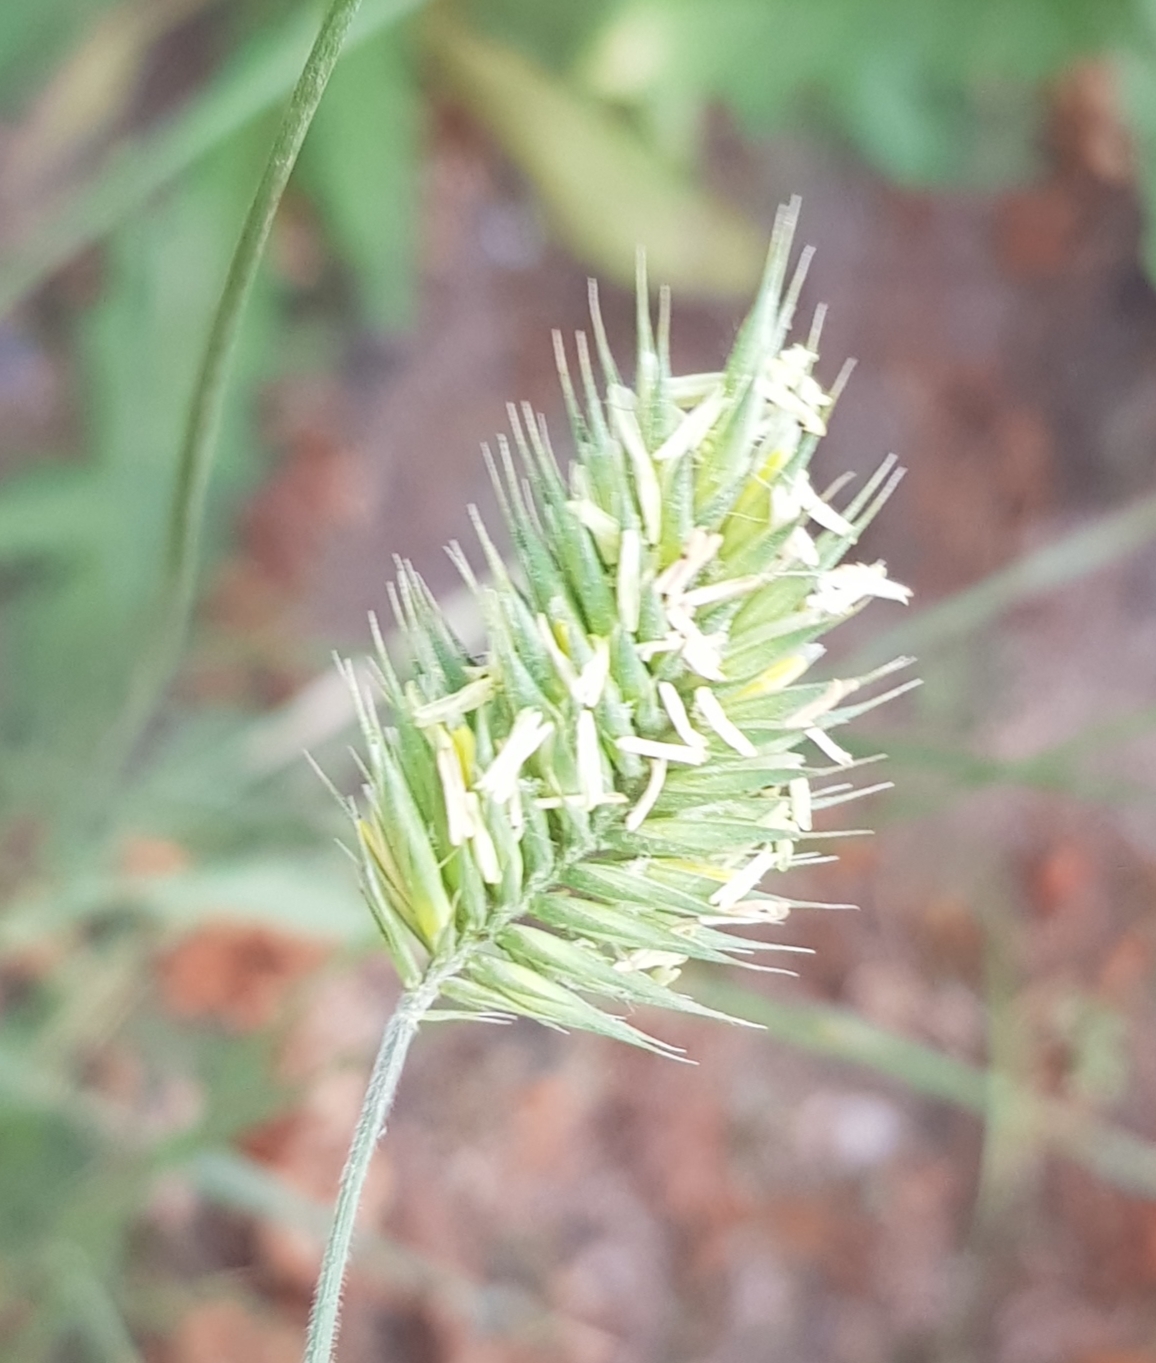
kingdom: Plantae
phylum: Tracheophyta
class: Liliopsida
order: Poales
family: Poaceae
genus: Agropyron
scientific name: Agropyron cristatum
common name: Crested wheatgrass
